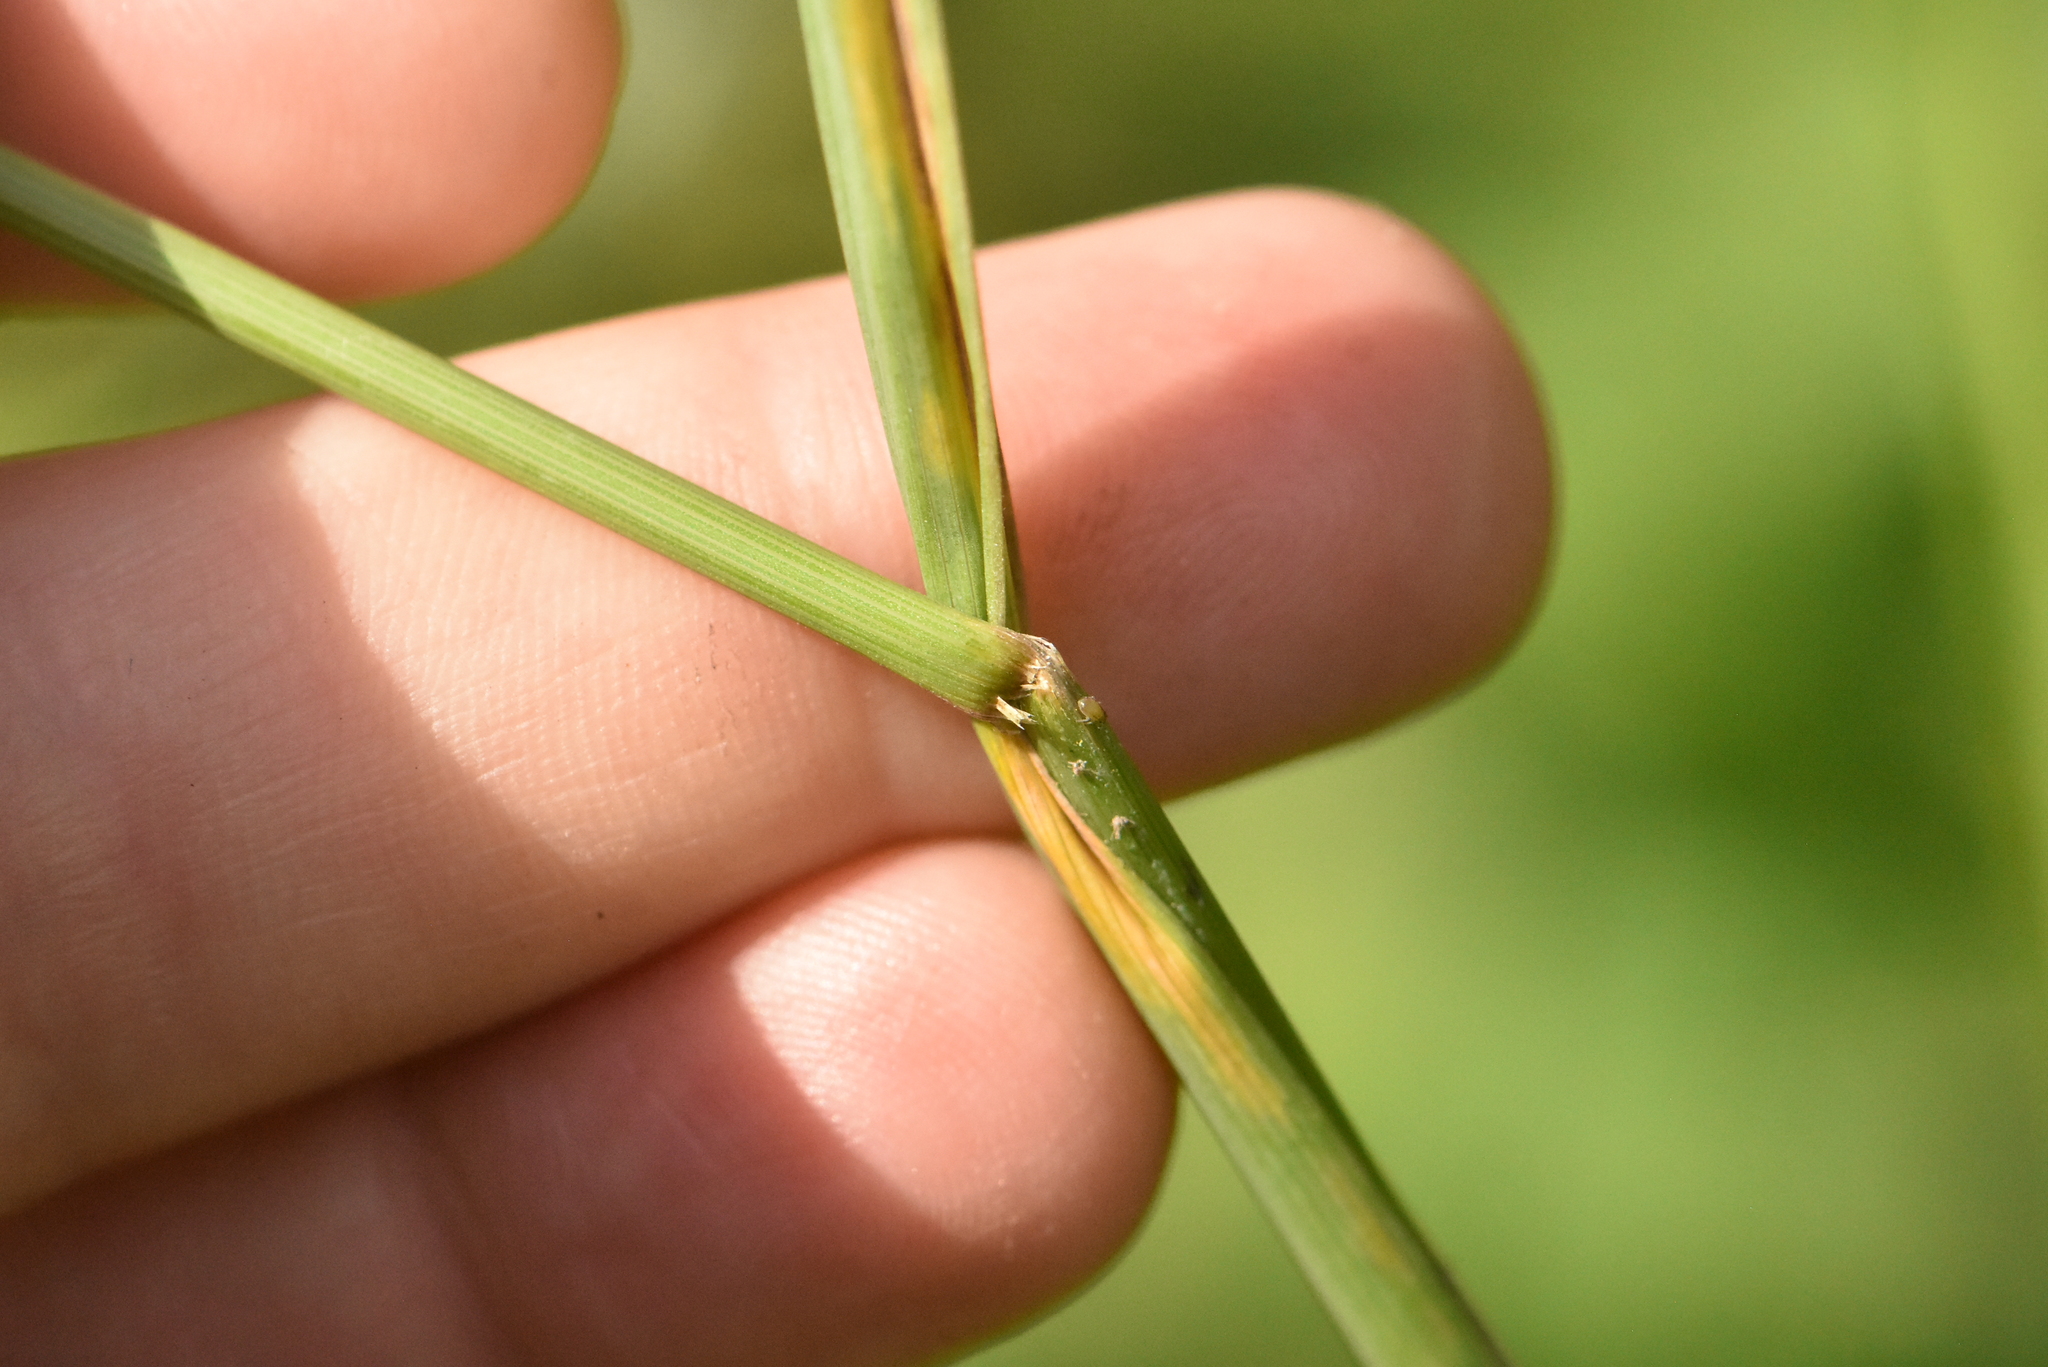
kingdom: Plantae
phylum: Tracheophyta
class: Liliopsida
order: Poales
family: Poaceae
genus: Dactylis
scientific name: Dactylis glomerata
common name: Orchardgrass
